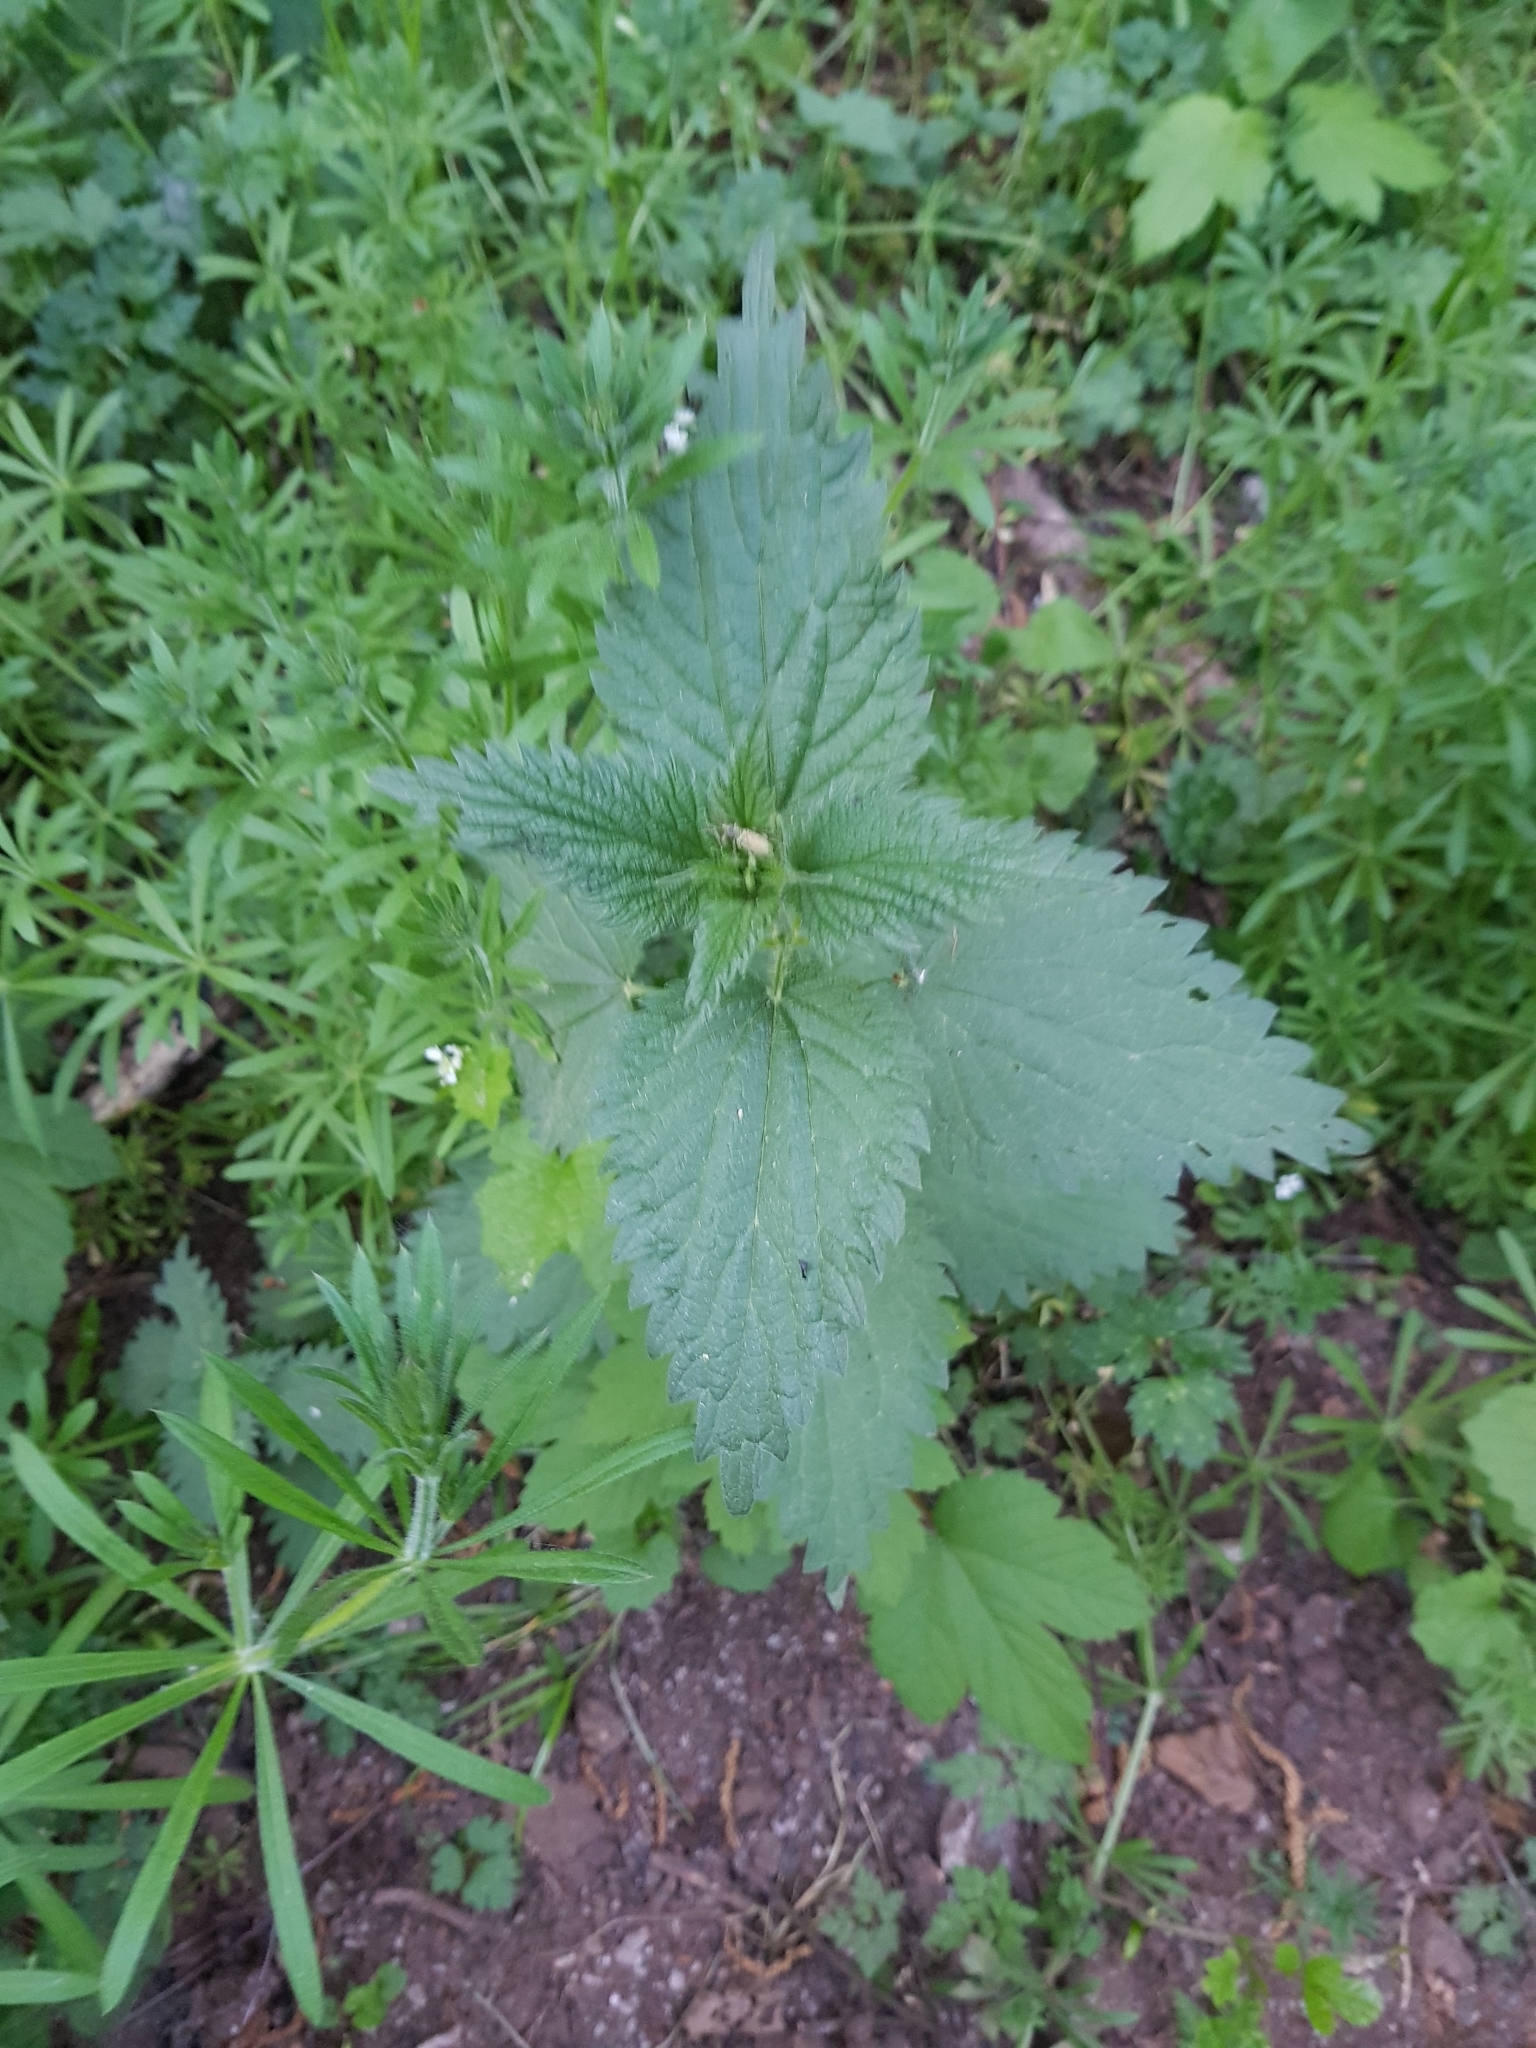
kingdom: Plantae
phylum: Tracheophyta
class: Magnoliopsida
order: Rosales
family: Urticaceae
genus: Urtica
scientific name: Urtica dioica
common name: Common nettle
